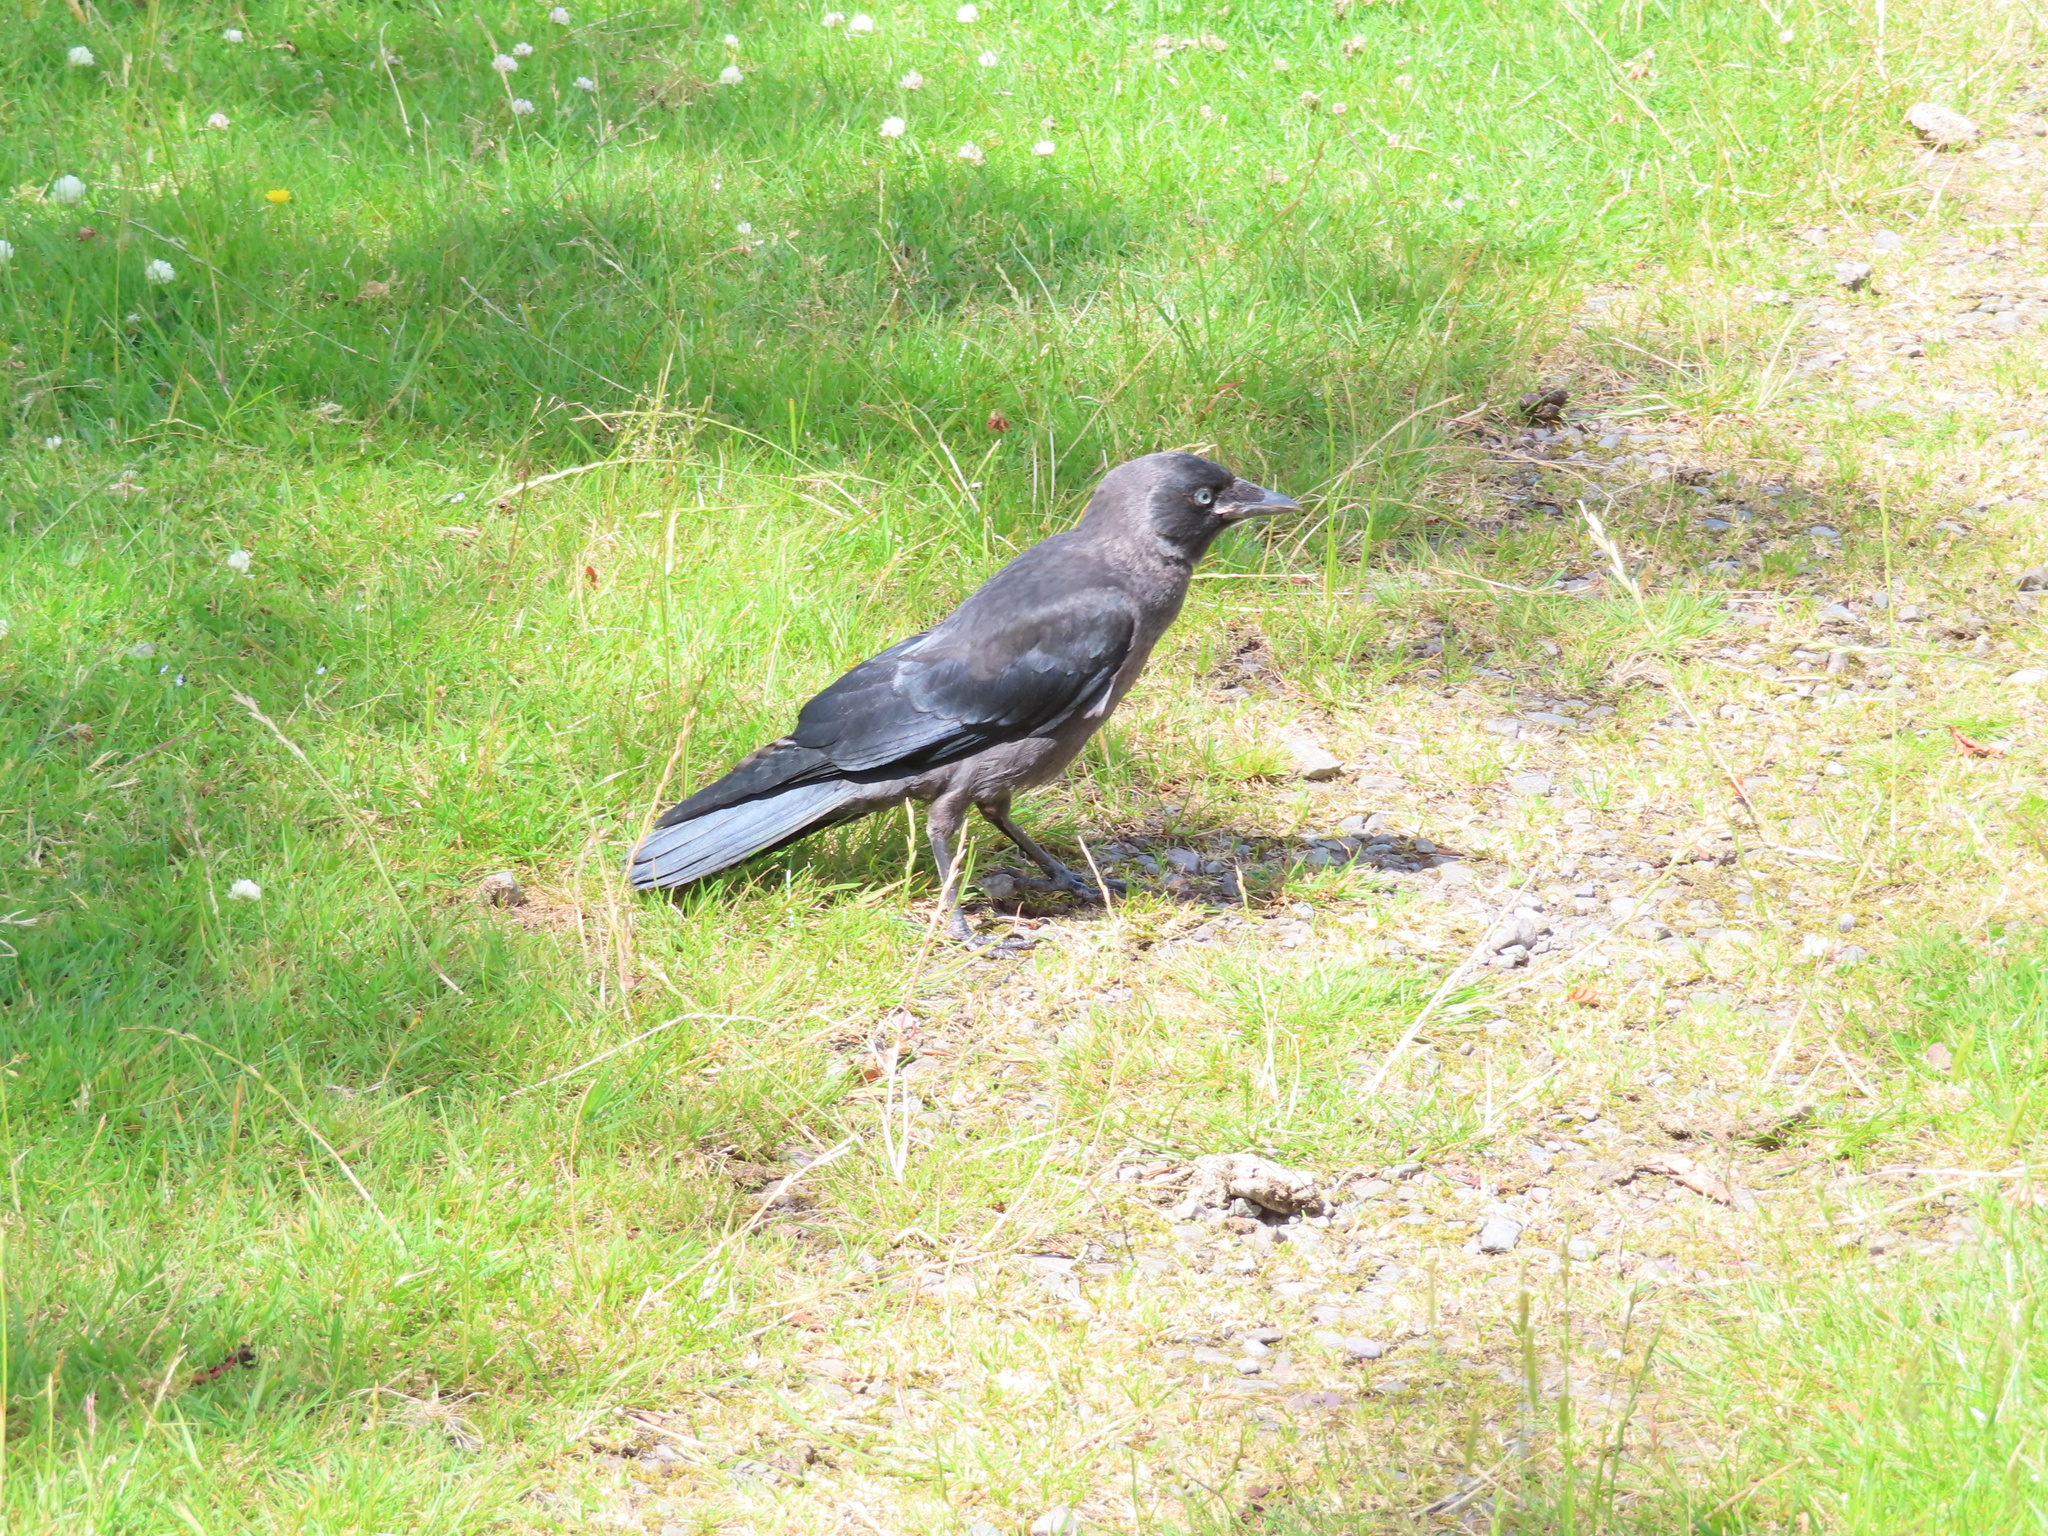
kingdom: Animalia
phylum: Chordata
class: Aves
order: Passeriformes
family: Corvidae
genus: Coloeus
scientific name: Coloeus monedula
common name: Western jackdaw
